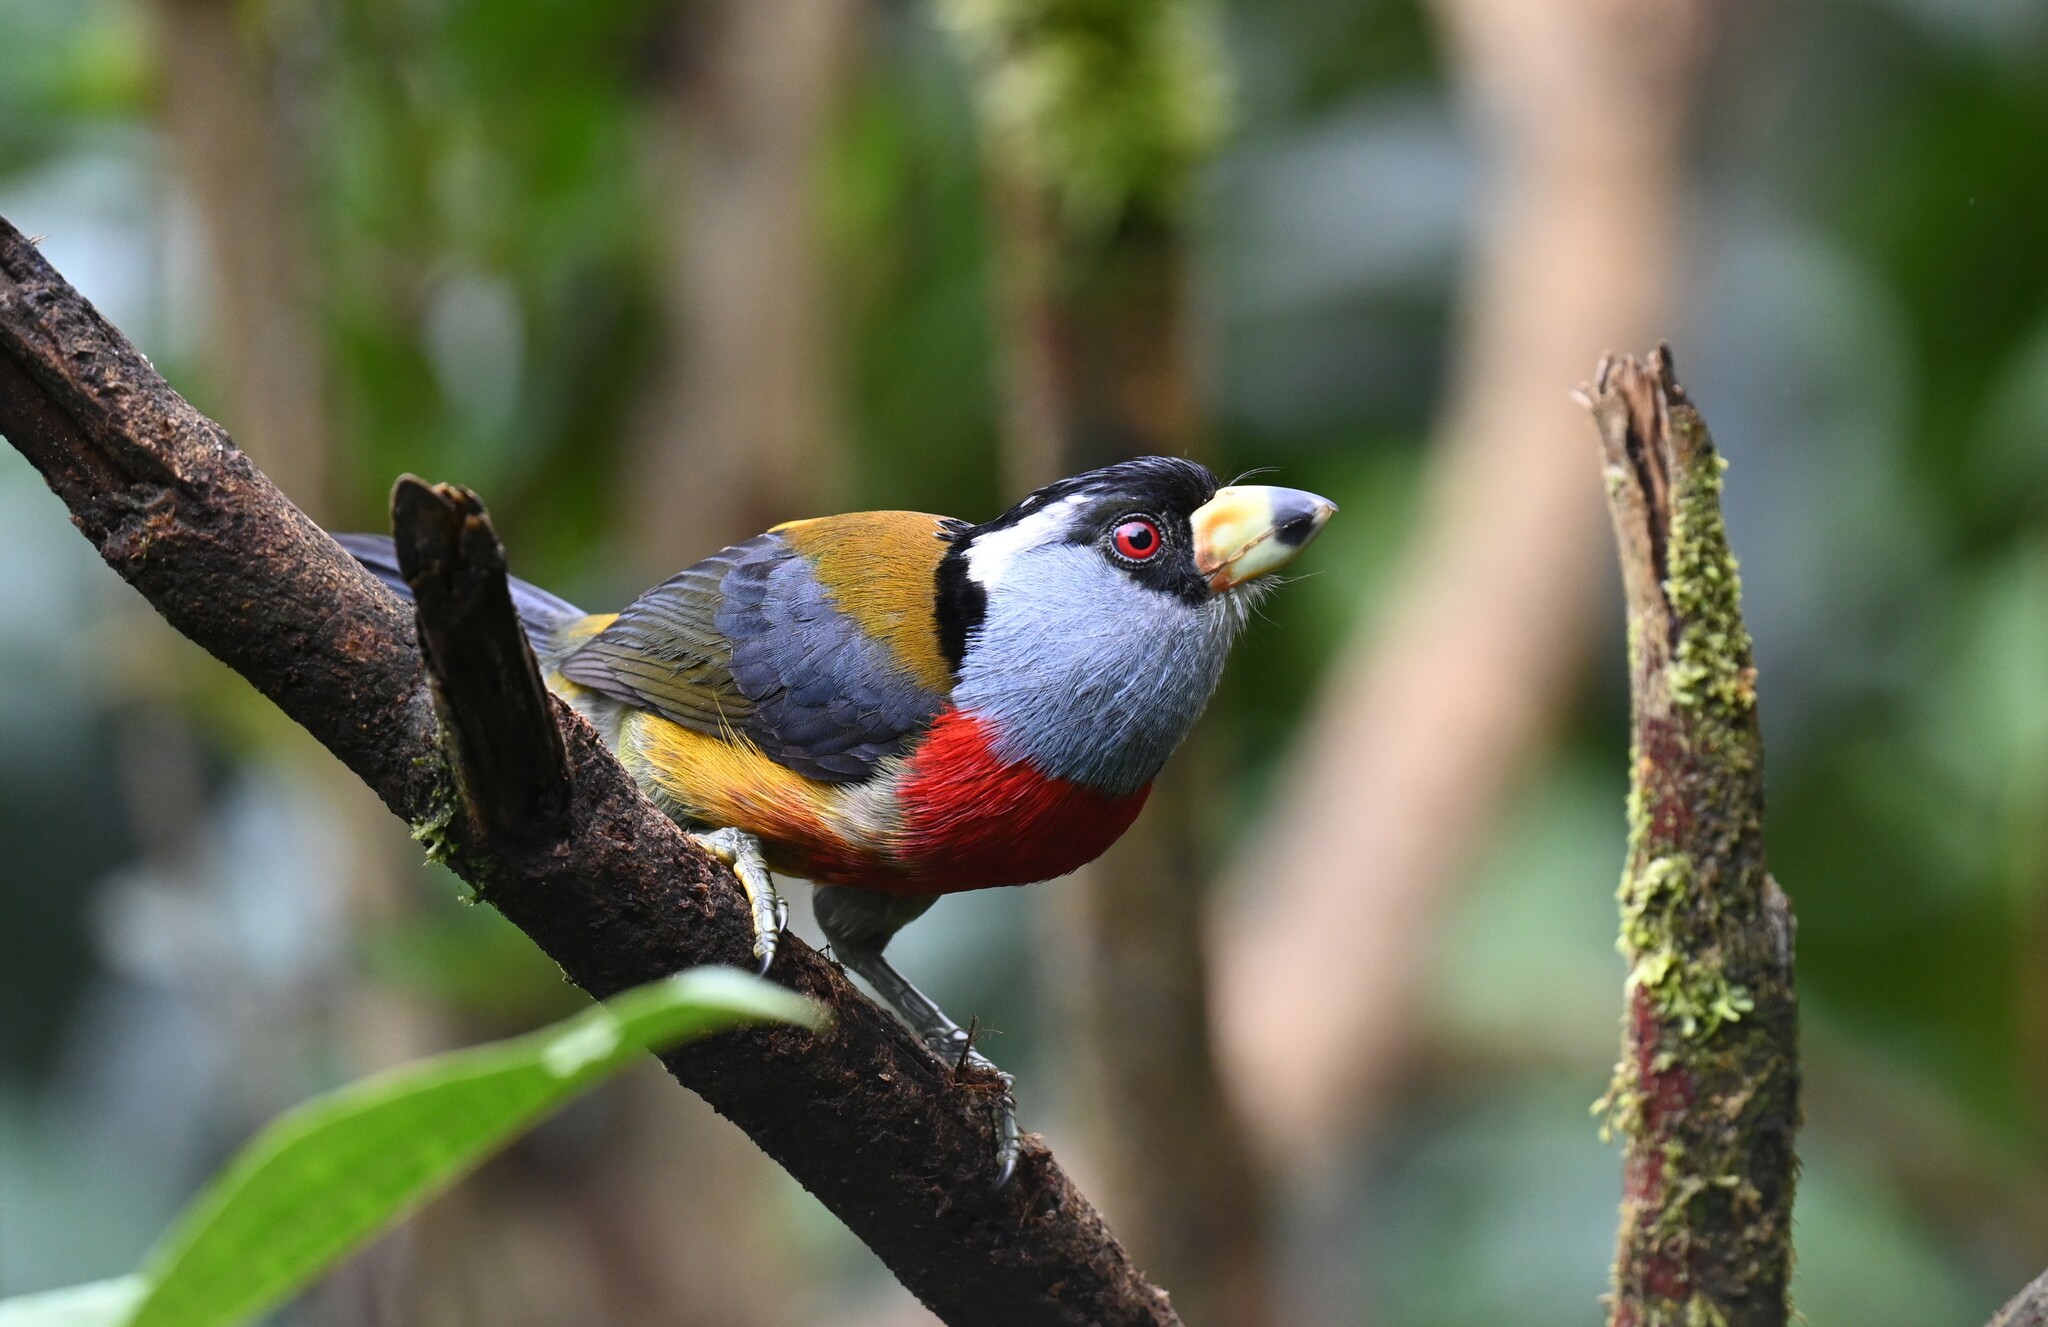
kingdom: Animalia
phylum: Chordata
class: Aves
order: Piciformes
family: Semnornithidae
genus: Semnornis
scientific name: Semnornis ramphastinus
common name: Toucan barbet
